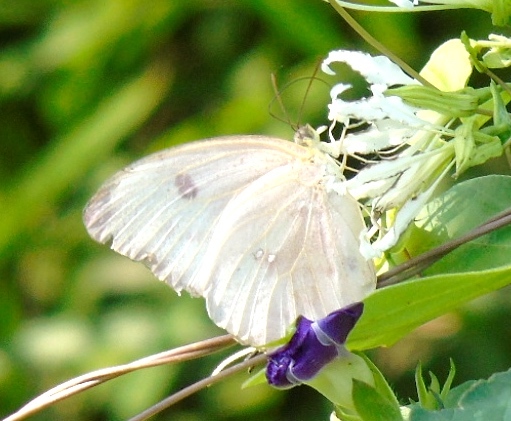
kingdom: Animalia
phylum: Arthropoda
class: Insecta
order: Lepidoptera
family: Pieridae
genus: Phoebis
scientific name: Phoebis
